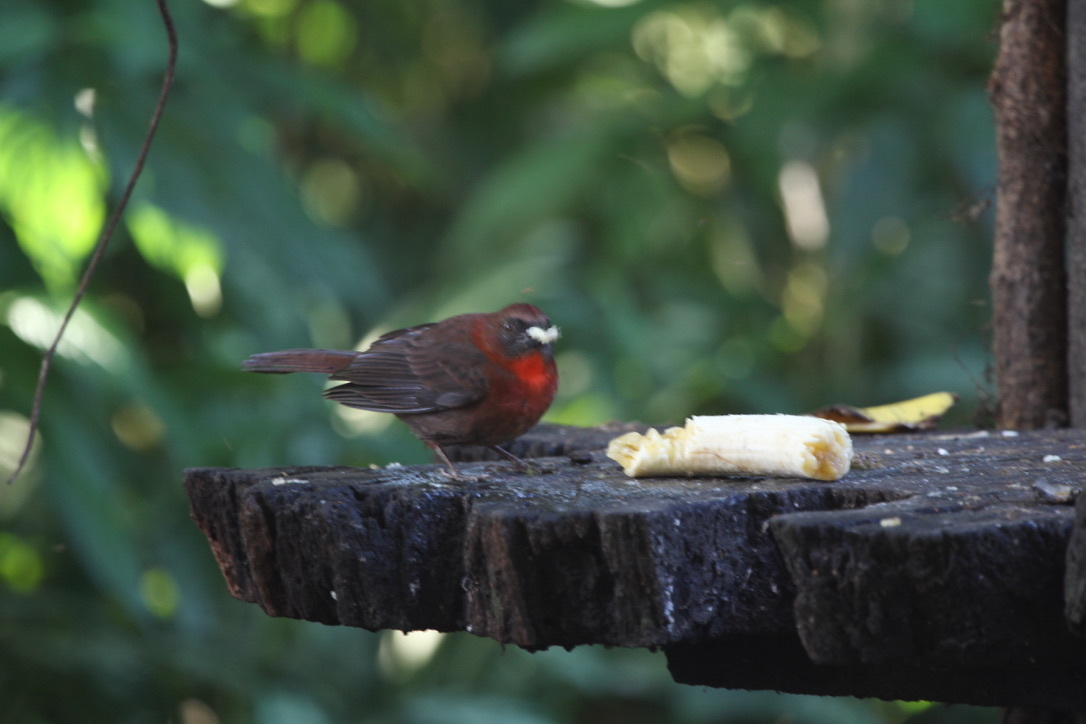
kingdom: Animalia
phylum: Chordata
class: Aves
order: Passeriformes
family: Cardinalidae
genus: Habia
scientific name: Habia fuscicauda
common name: Red-throated ant-tanager
